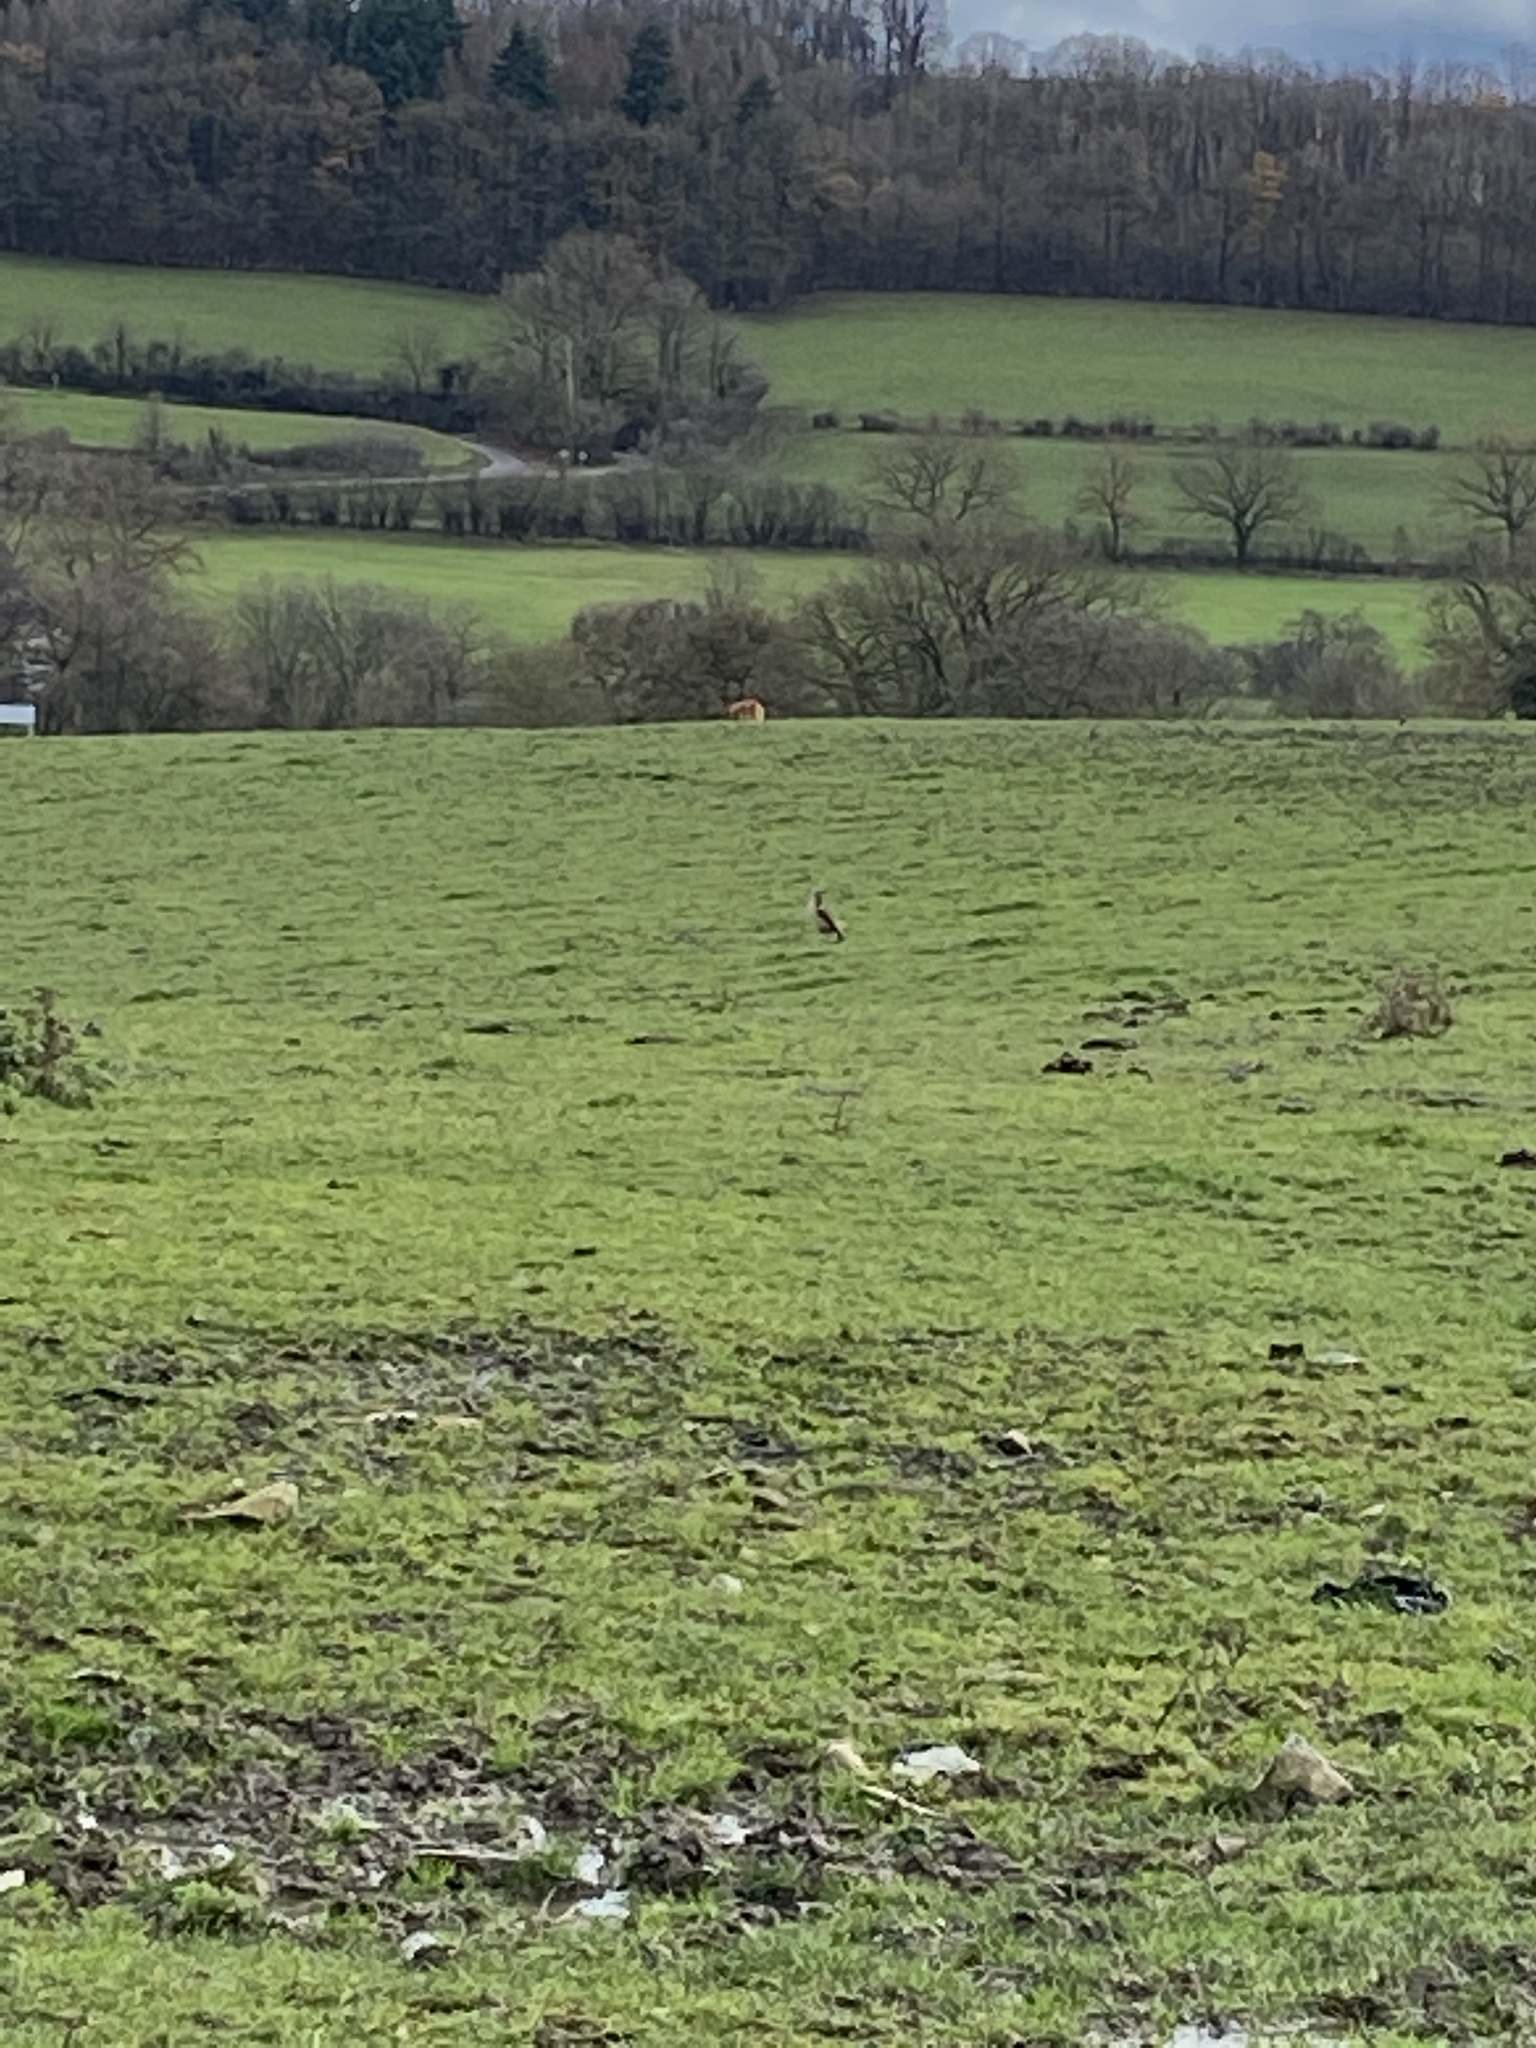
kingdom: Animalia
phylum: Chordata
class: Aves
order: Anseriformes
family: Anatidae
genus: Alopochen
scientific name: Alopochen aegyptiaca
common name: Egyptian goose
